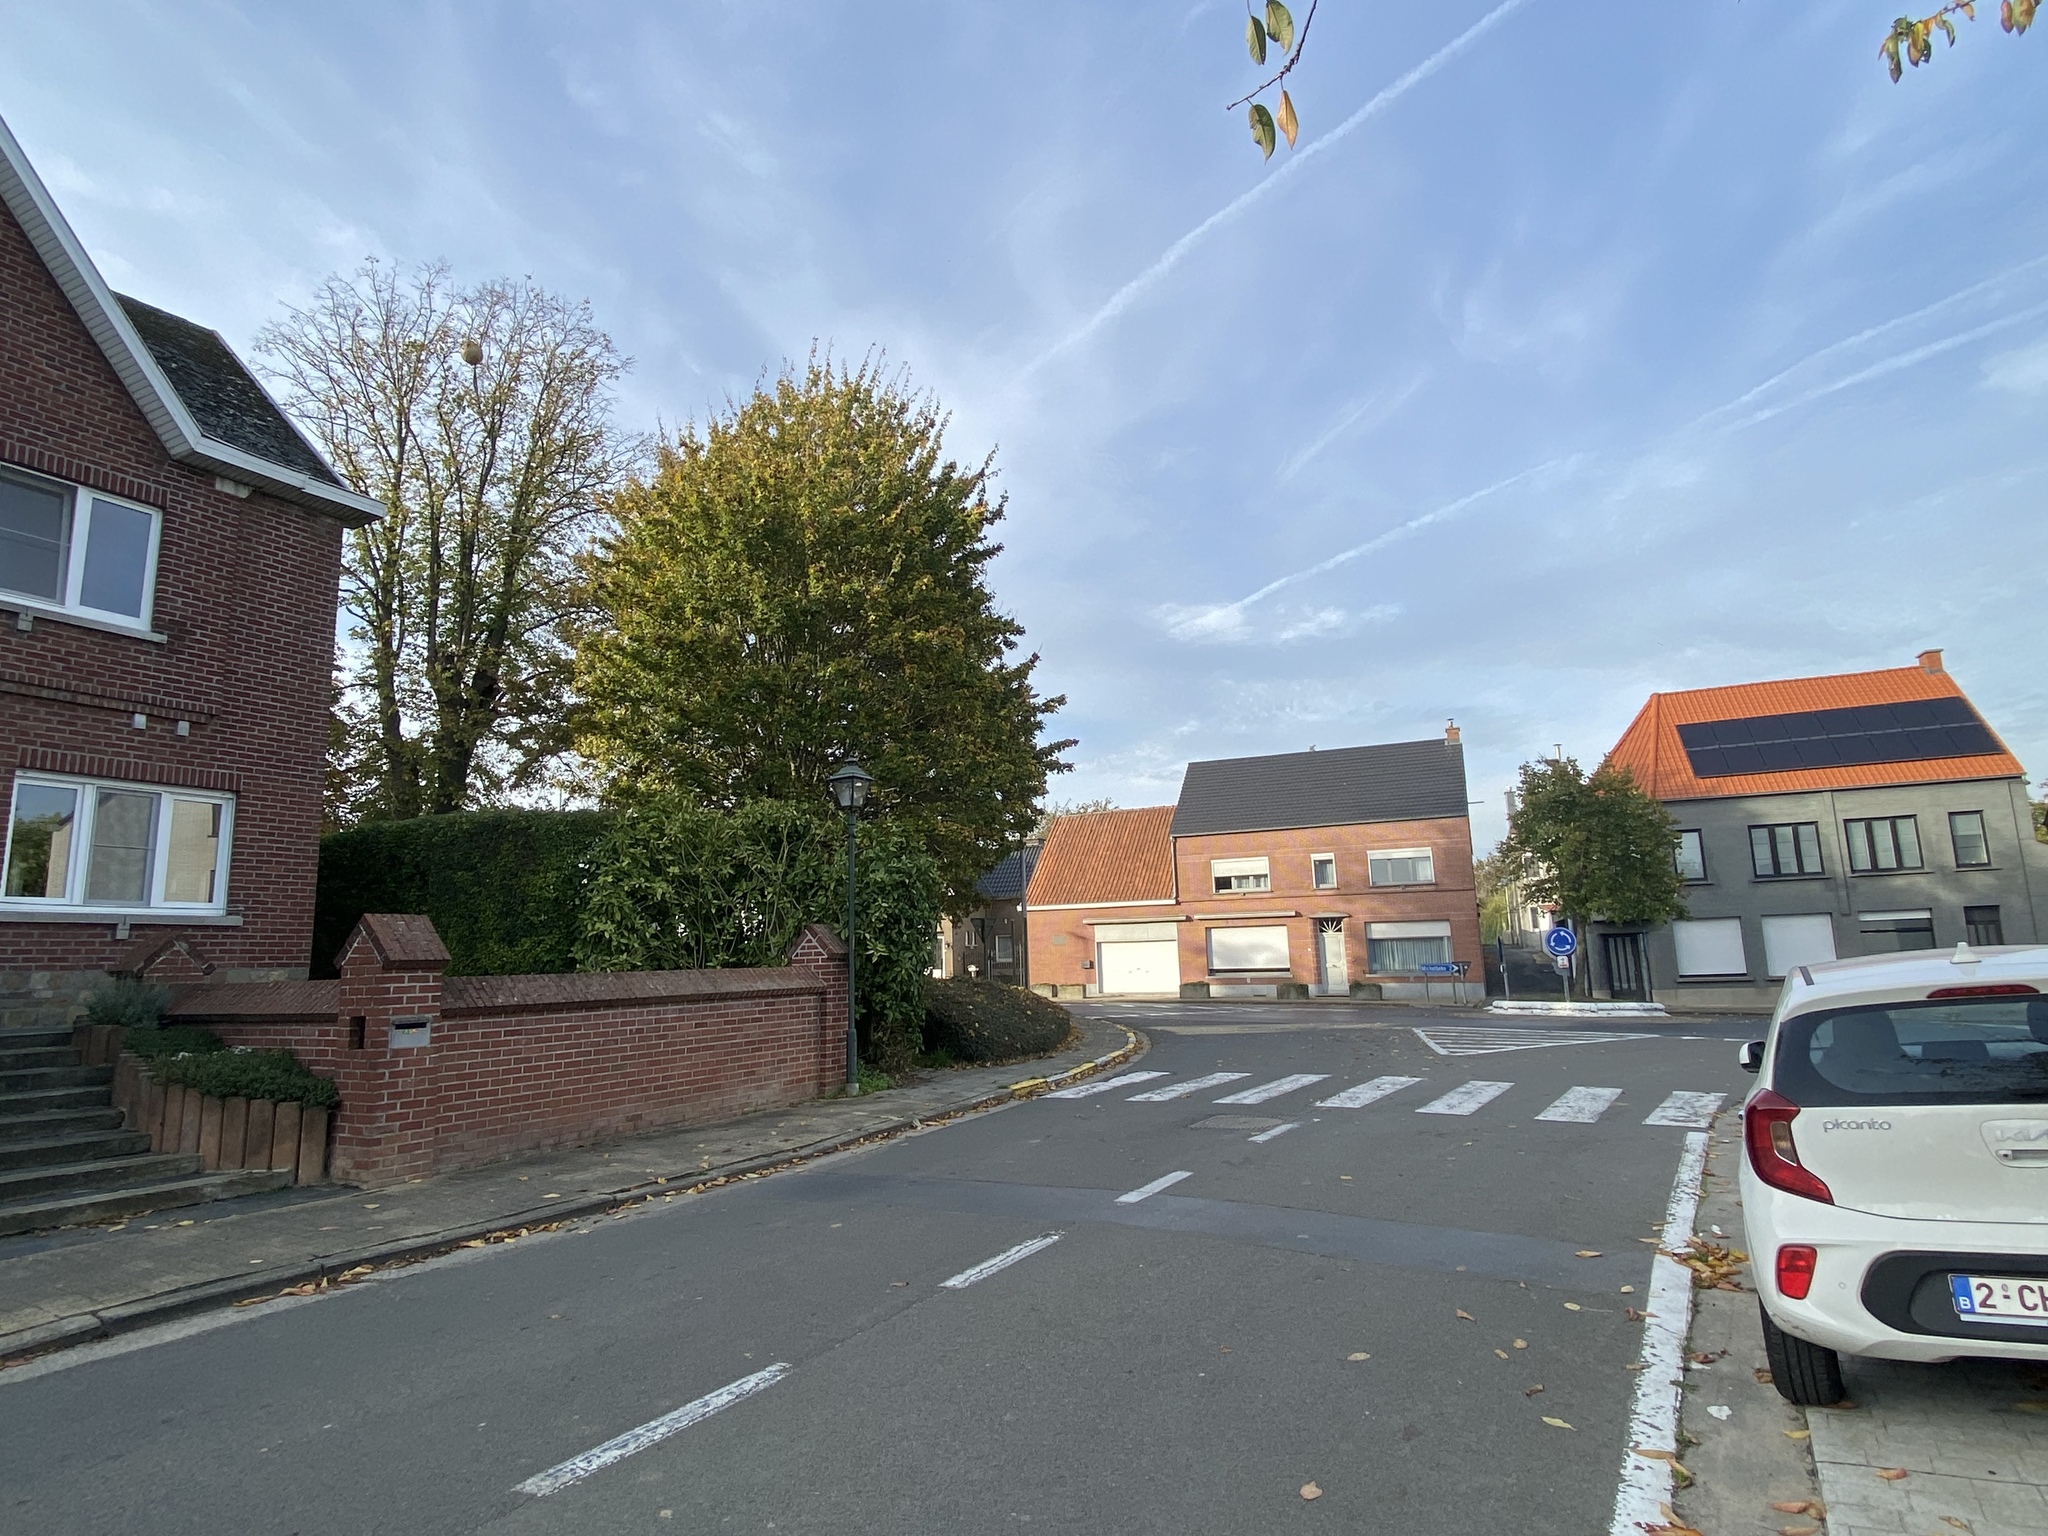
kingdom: Animalia
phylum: Arthropoda
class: Insecta
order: Hymenoptera
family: Vespidae
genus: Vespa
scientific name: Vespa velutina
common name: Asian hornet
